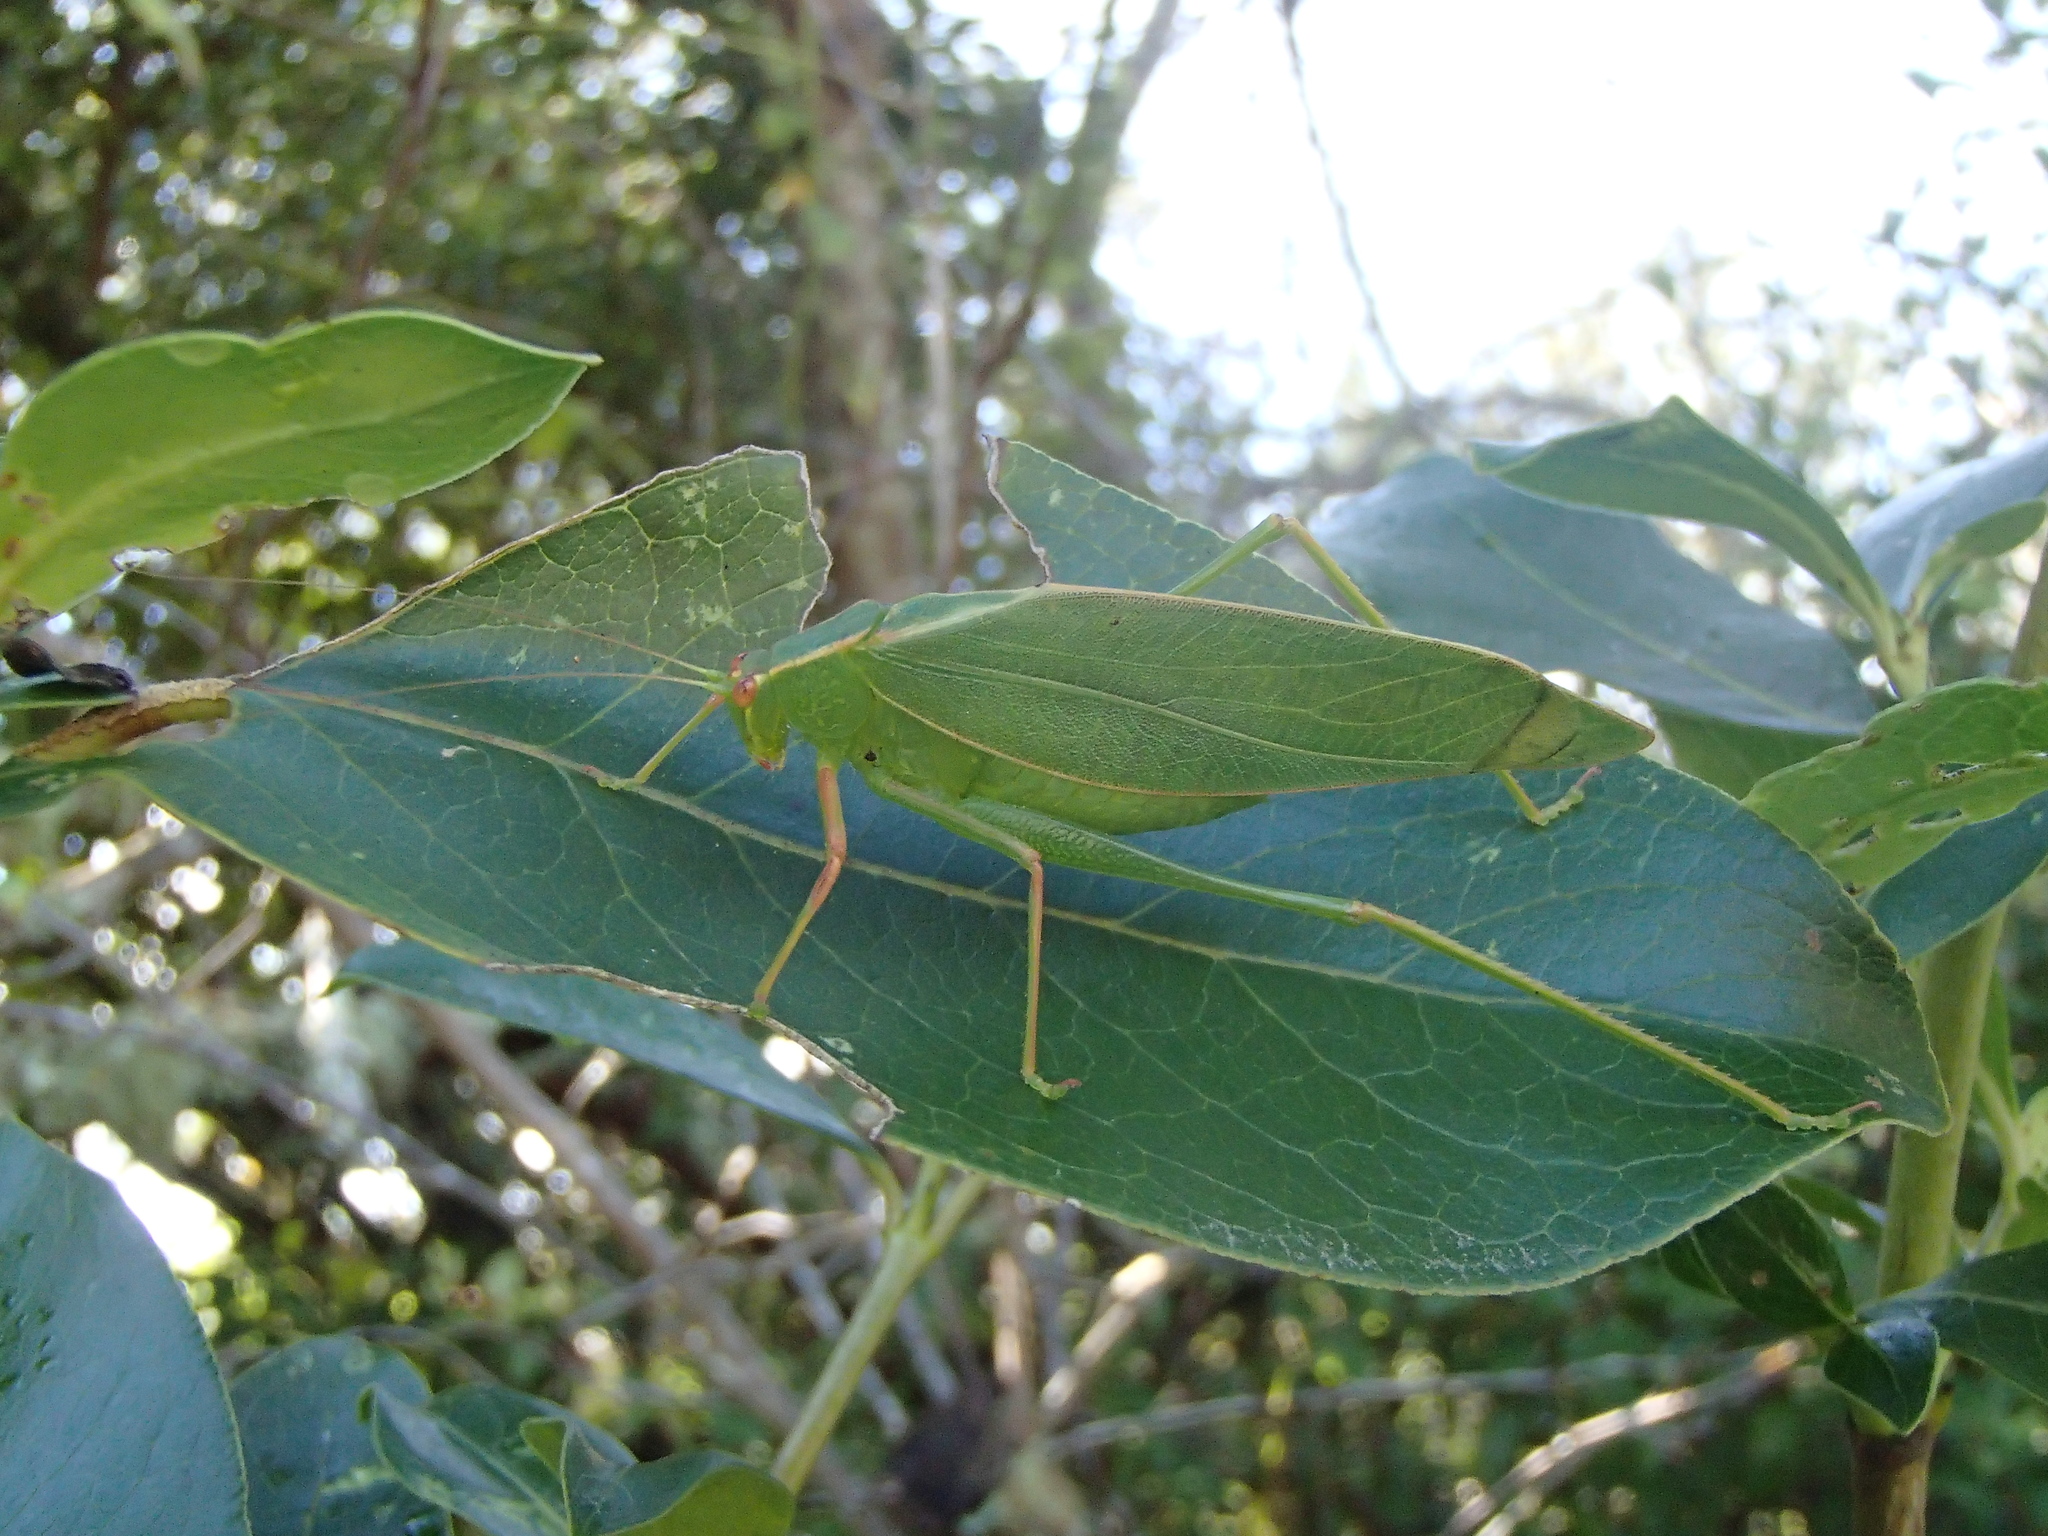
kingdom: Animalia
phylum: Arthropoda
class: Insecta
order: Orthoptera
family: Tettigoniidae
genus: Caedicia
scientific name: Caedicia simplex
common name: Common garden katydid
